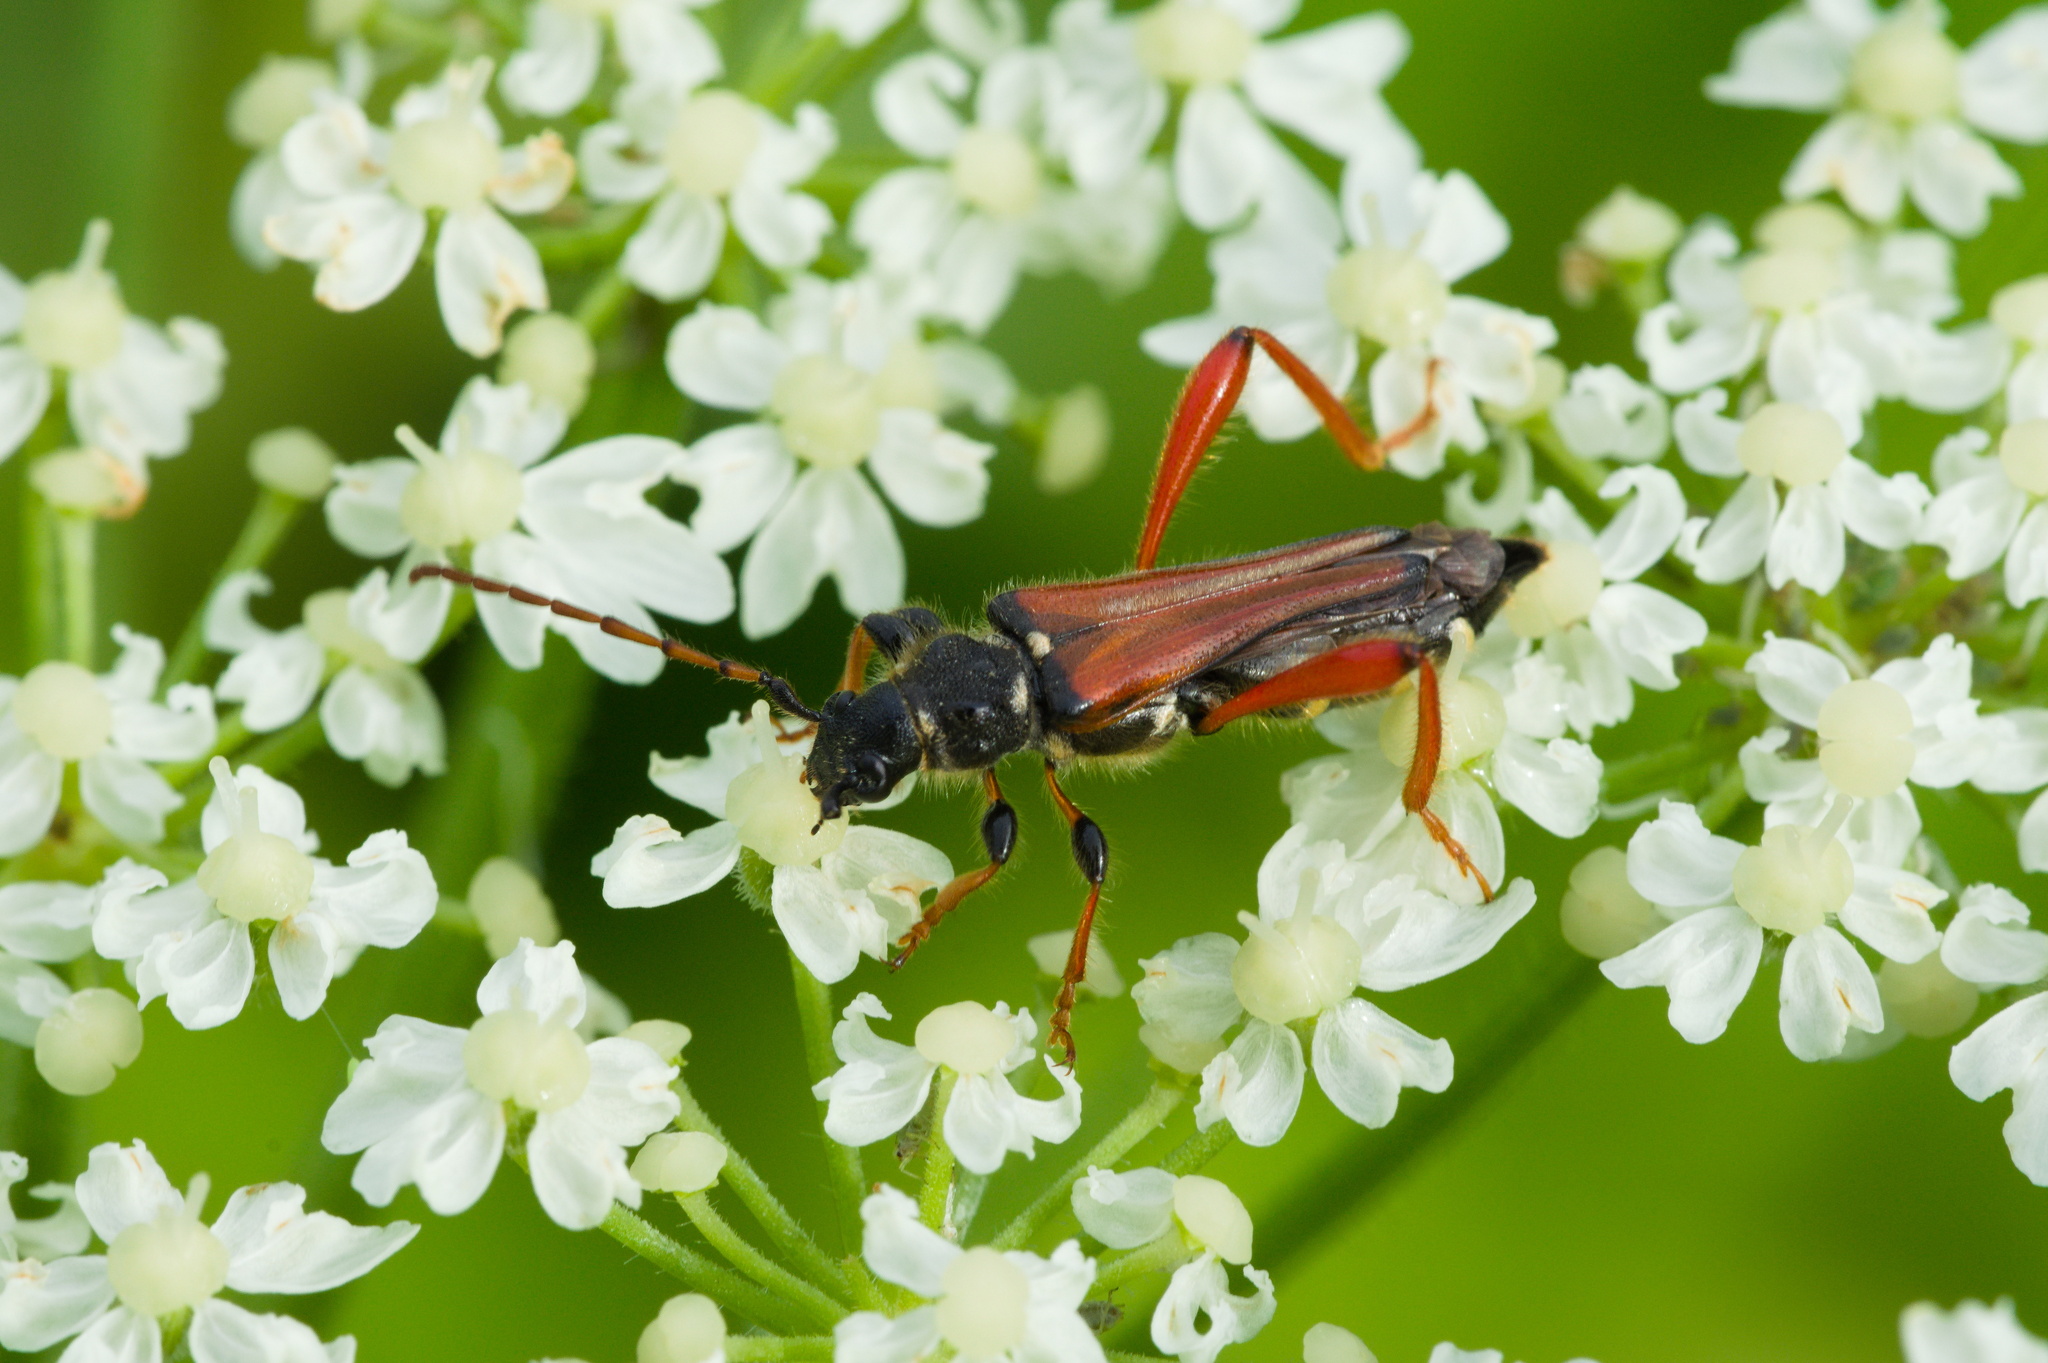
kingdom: Animalia
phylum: Arthropoda
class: Insecta
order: Coleoptera
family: Cerambycidae
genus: Stenopterus
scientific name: Stenopterus rufus
